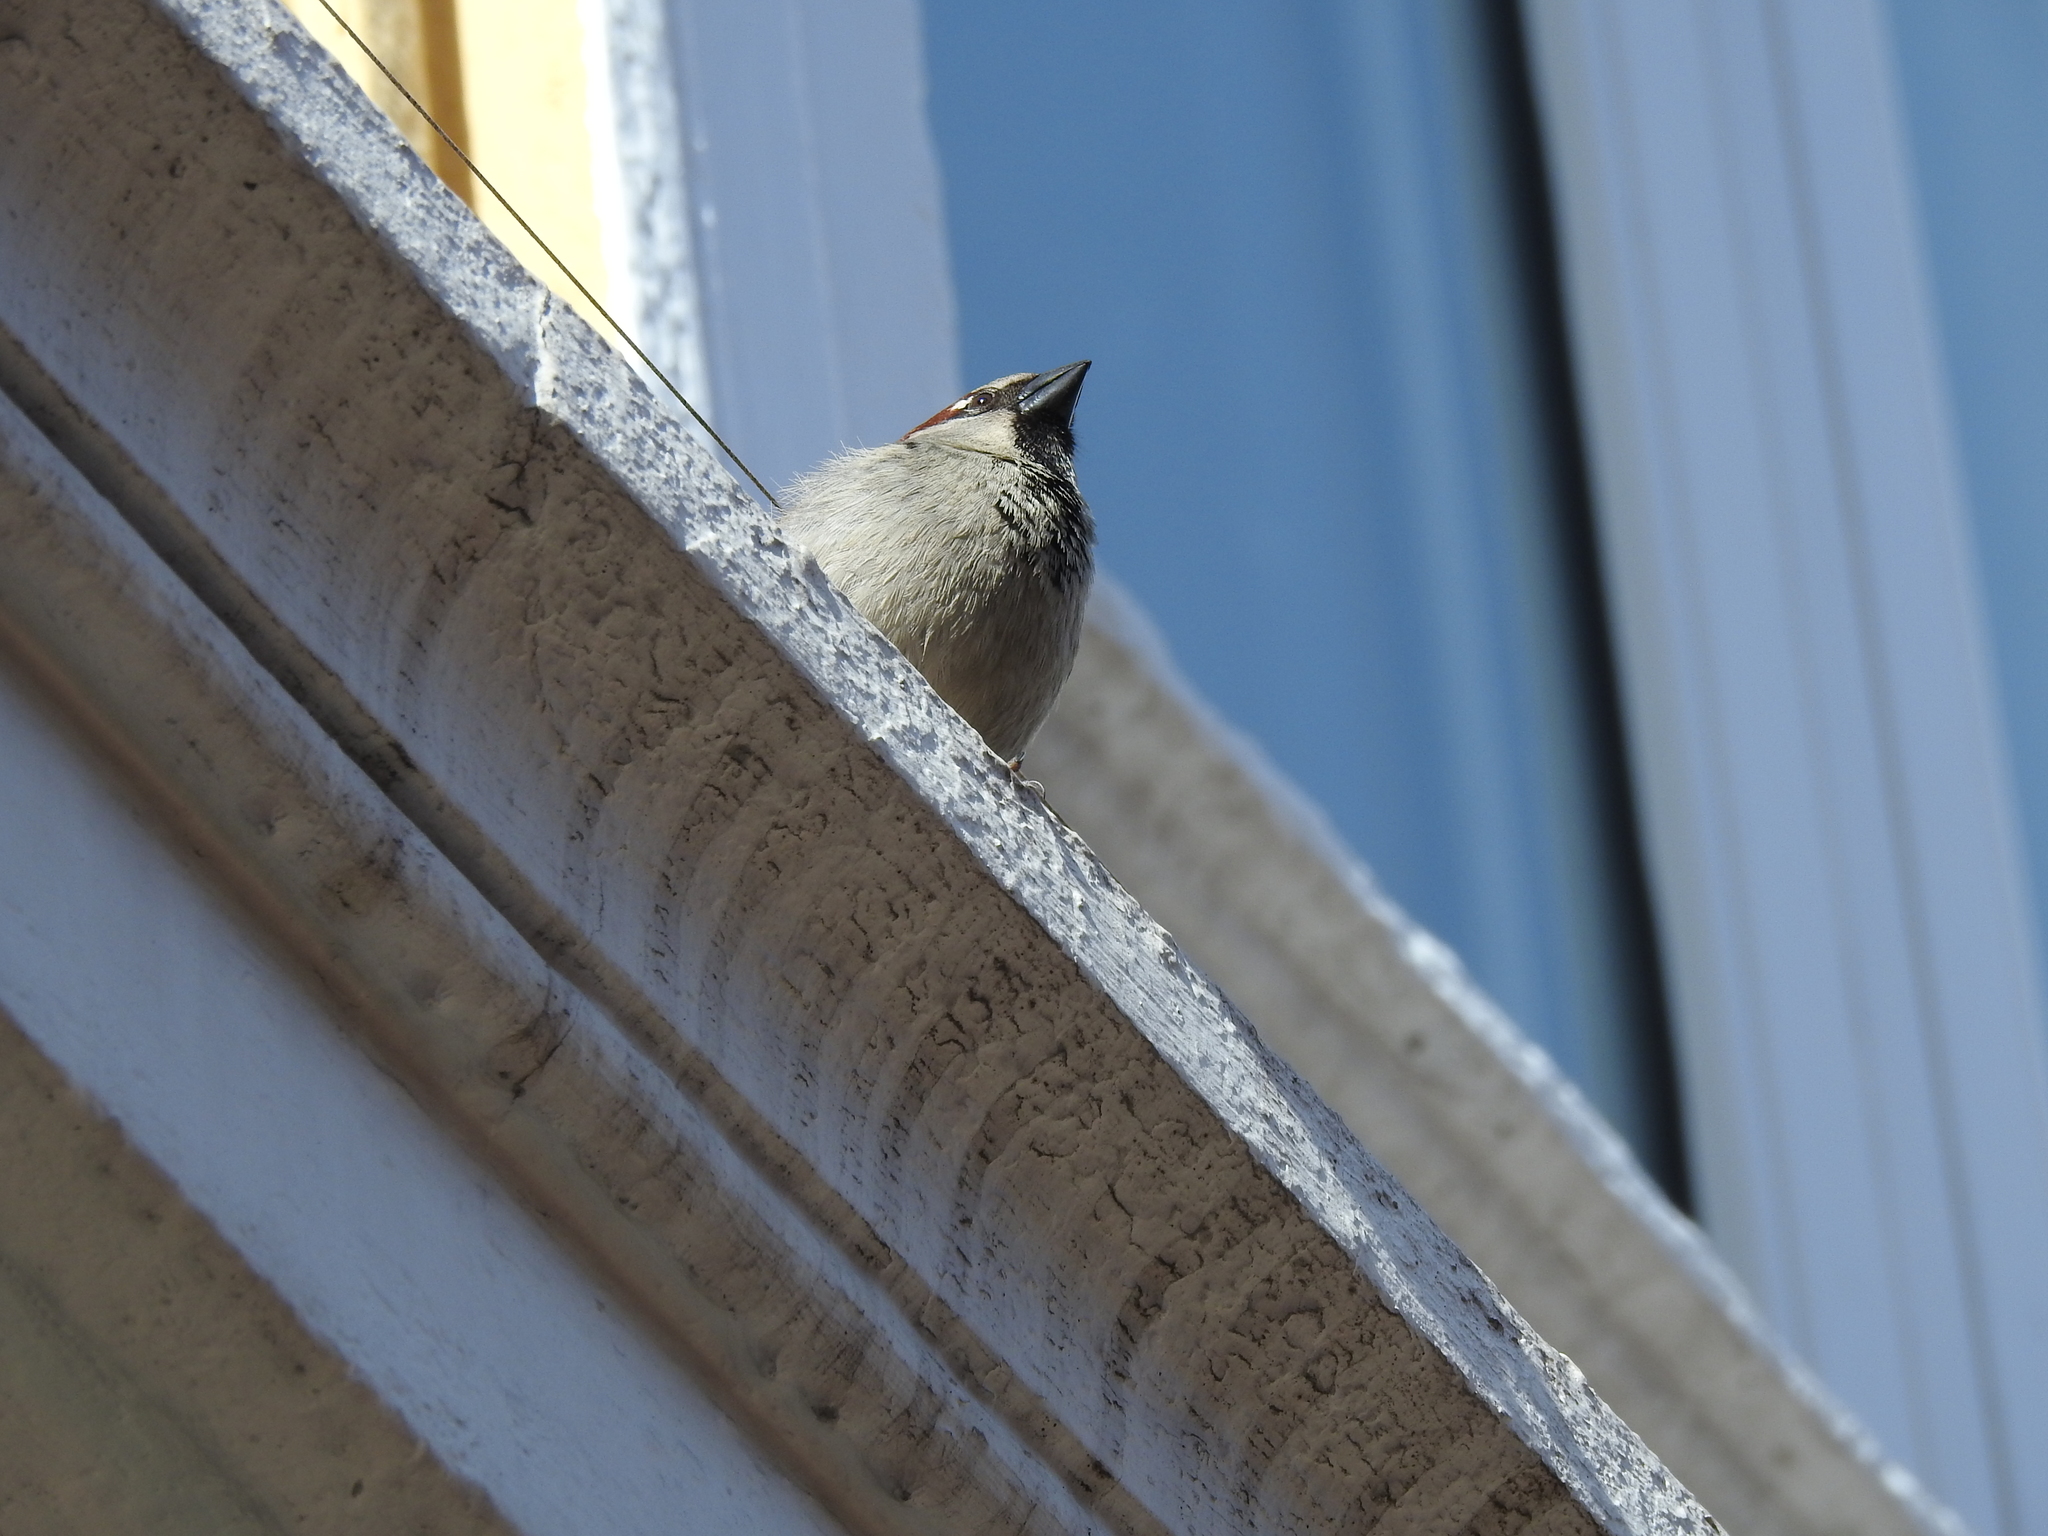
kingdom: Animalia
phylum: Chordata
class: Aves
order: Passeriformes
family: Passeridae
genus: Passer
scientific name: Passer domesticus
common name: House sparrow
